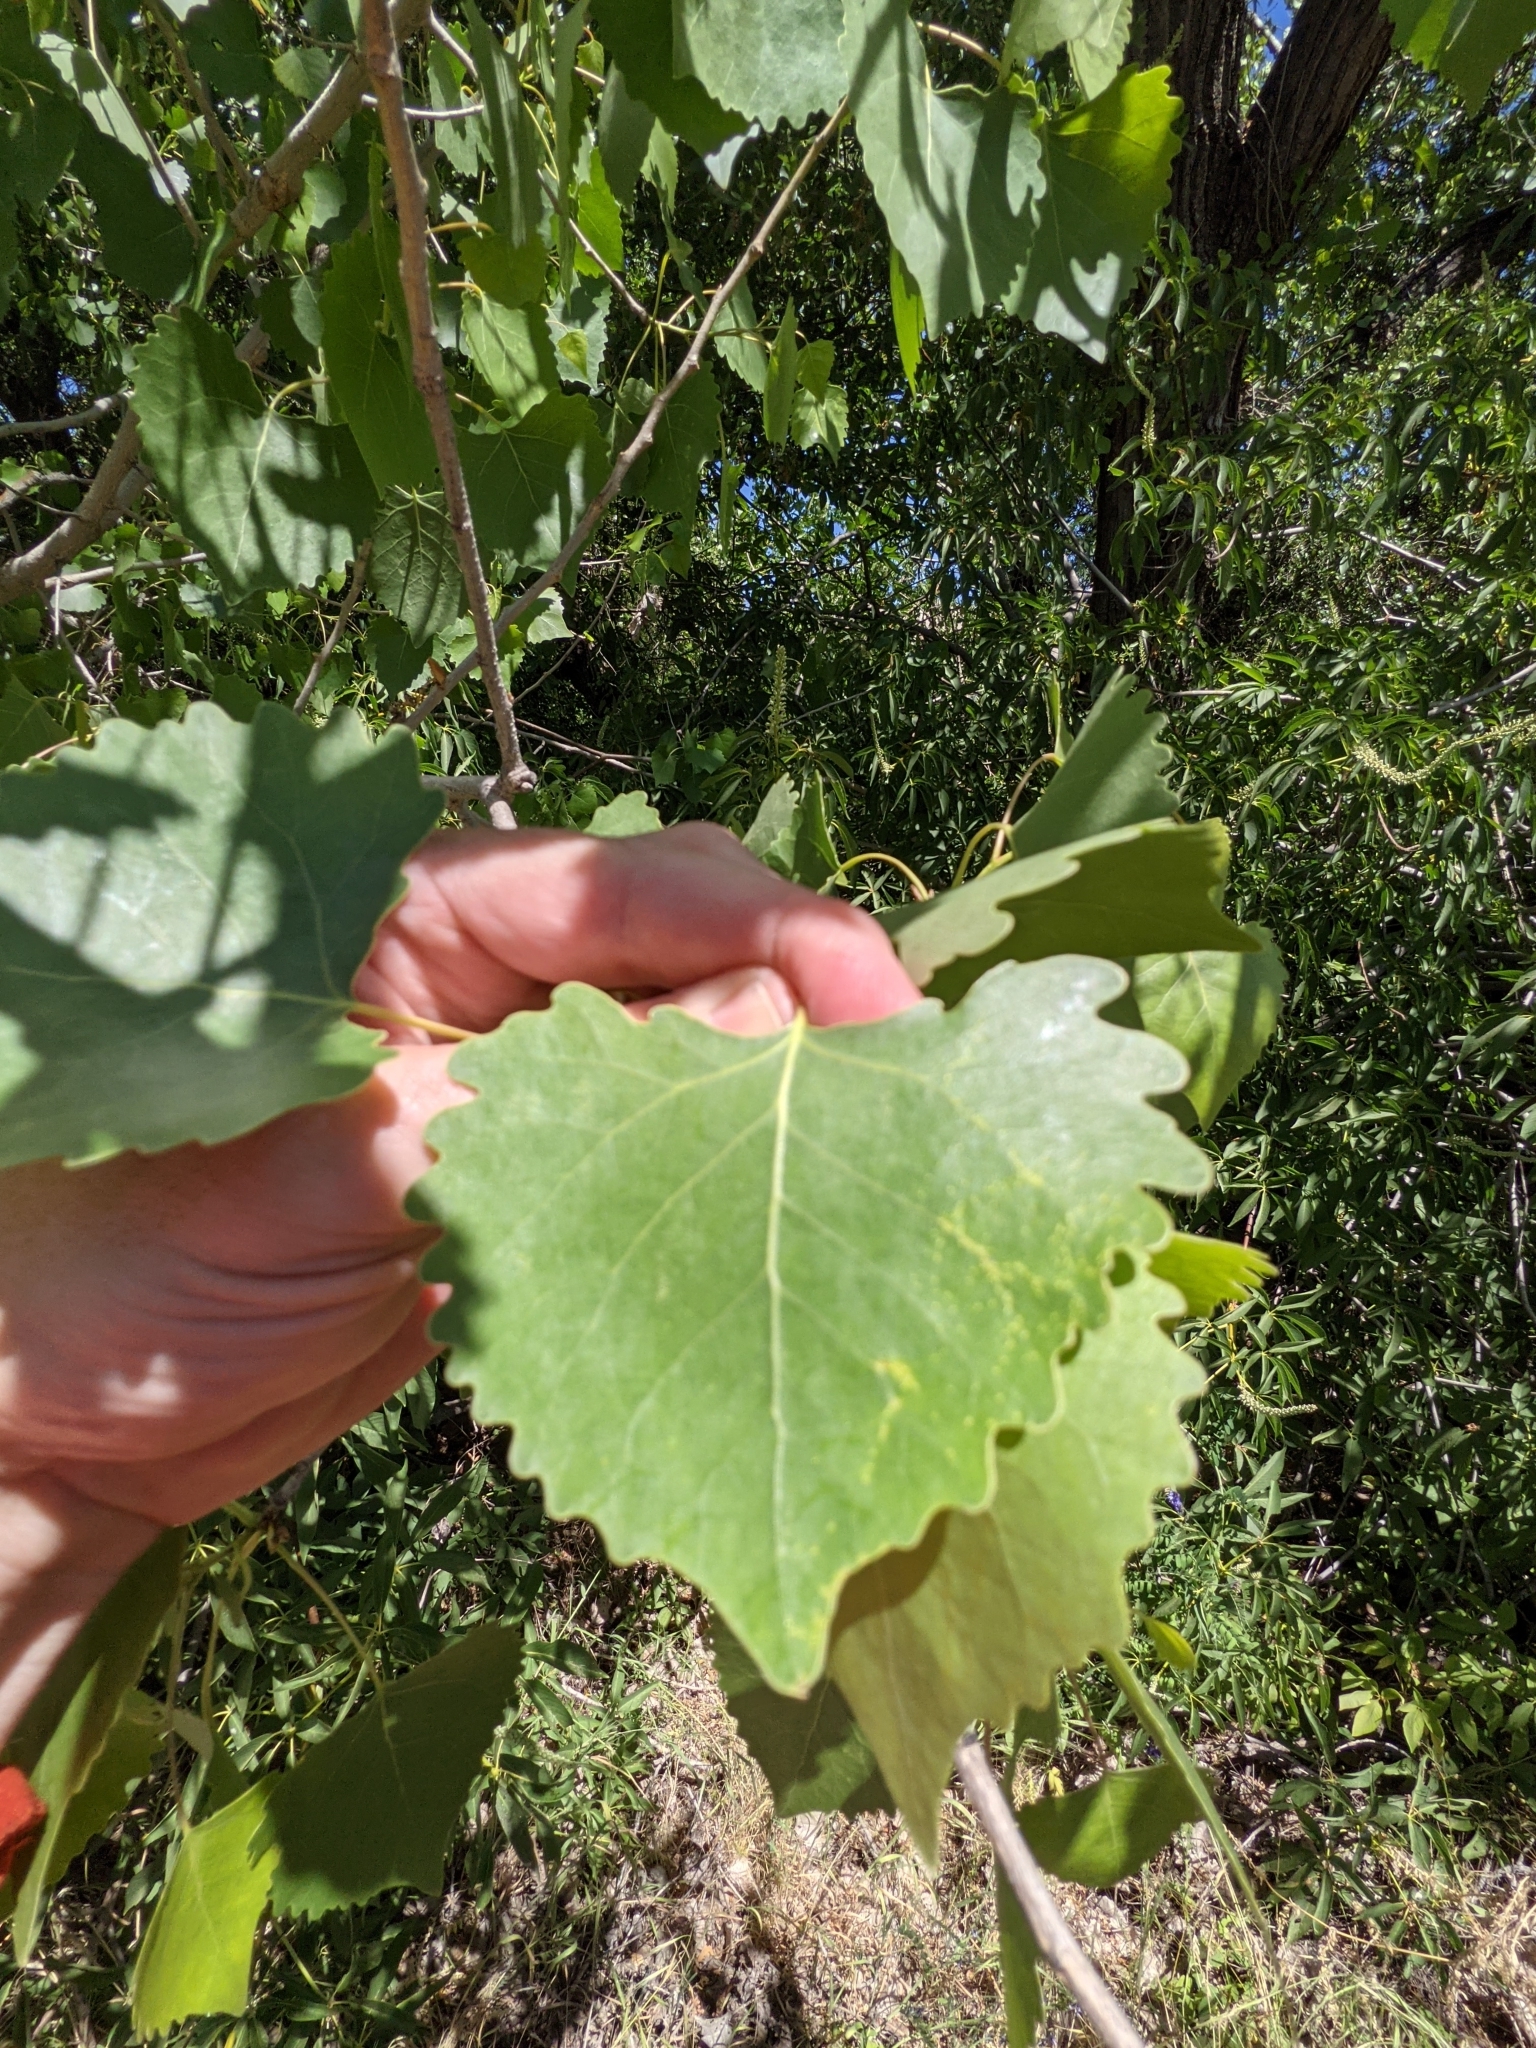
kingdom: Plantae
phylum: Tracheophyta
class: Magnoliopsida
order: Malpighiales
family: Salicaceae
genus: Populus
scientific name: Populus fremontii
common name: Fremont's cottonwood
